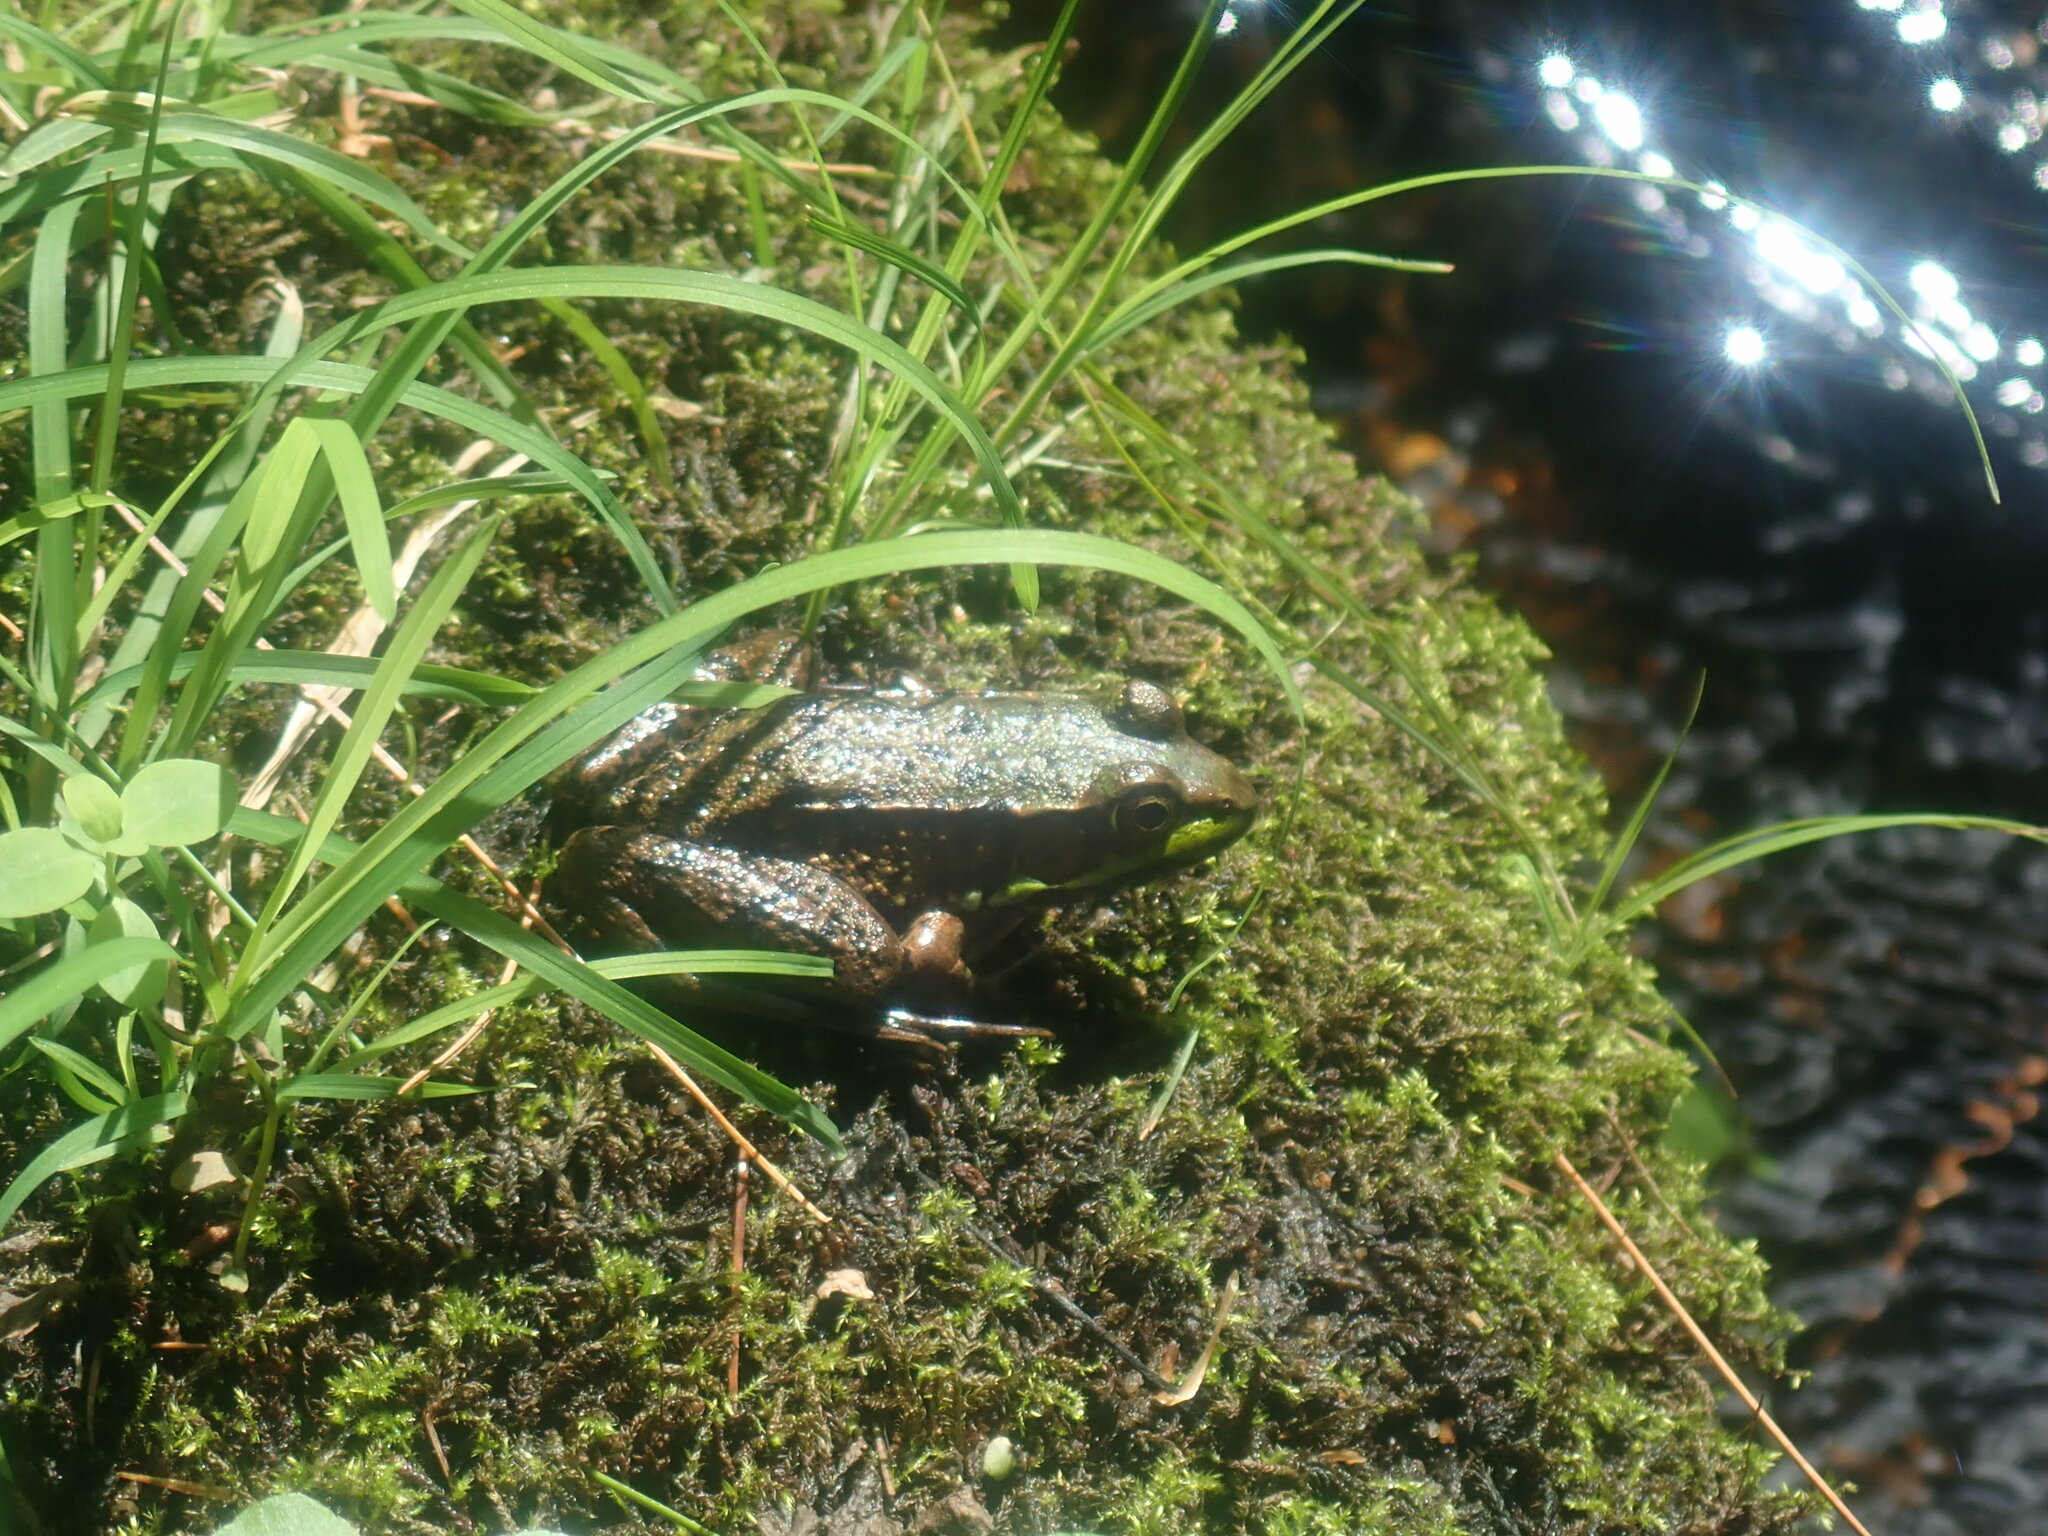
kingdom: Animalia
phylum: Chordata
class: Amphibia
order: Anura
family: Ranidae
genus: Lithobates
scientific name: Lithobates clamitans
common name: Green frog
